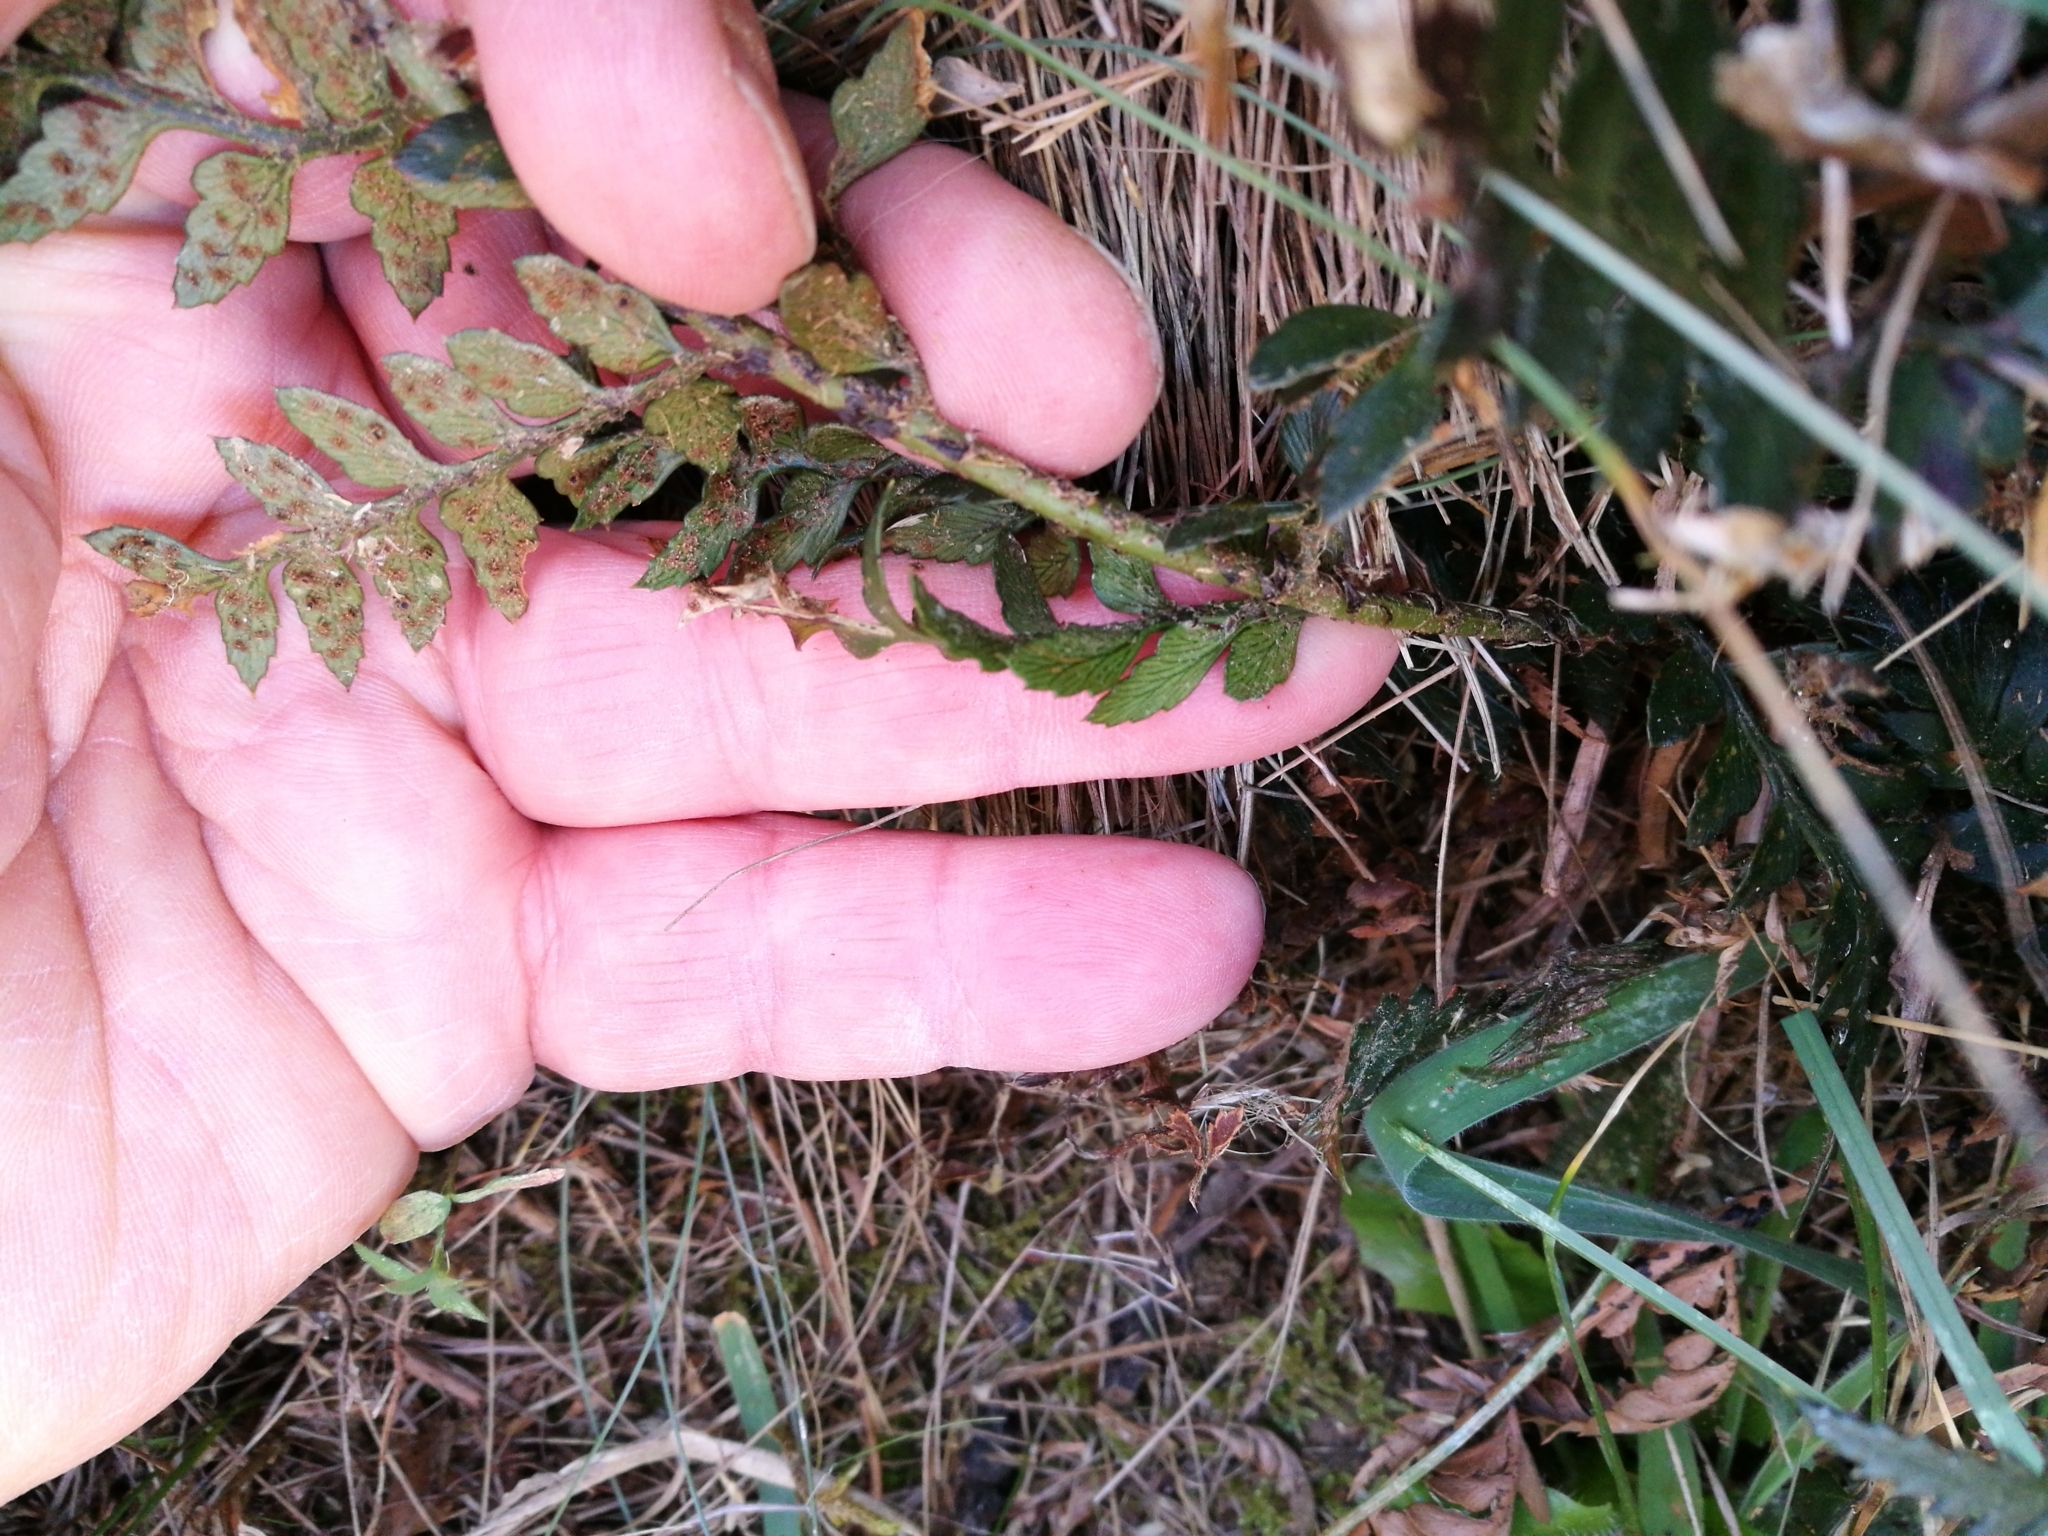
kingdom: Plantae
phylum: Tracheophyta
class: Polypodiopsida
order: Polypodiales
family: Dryopteridaceae
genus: Polystichum
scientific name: Polystichum oculatum
